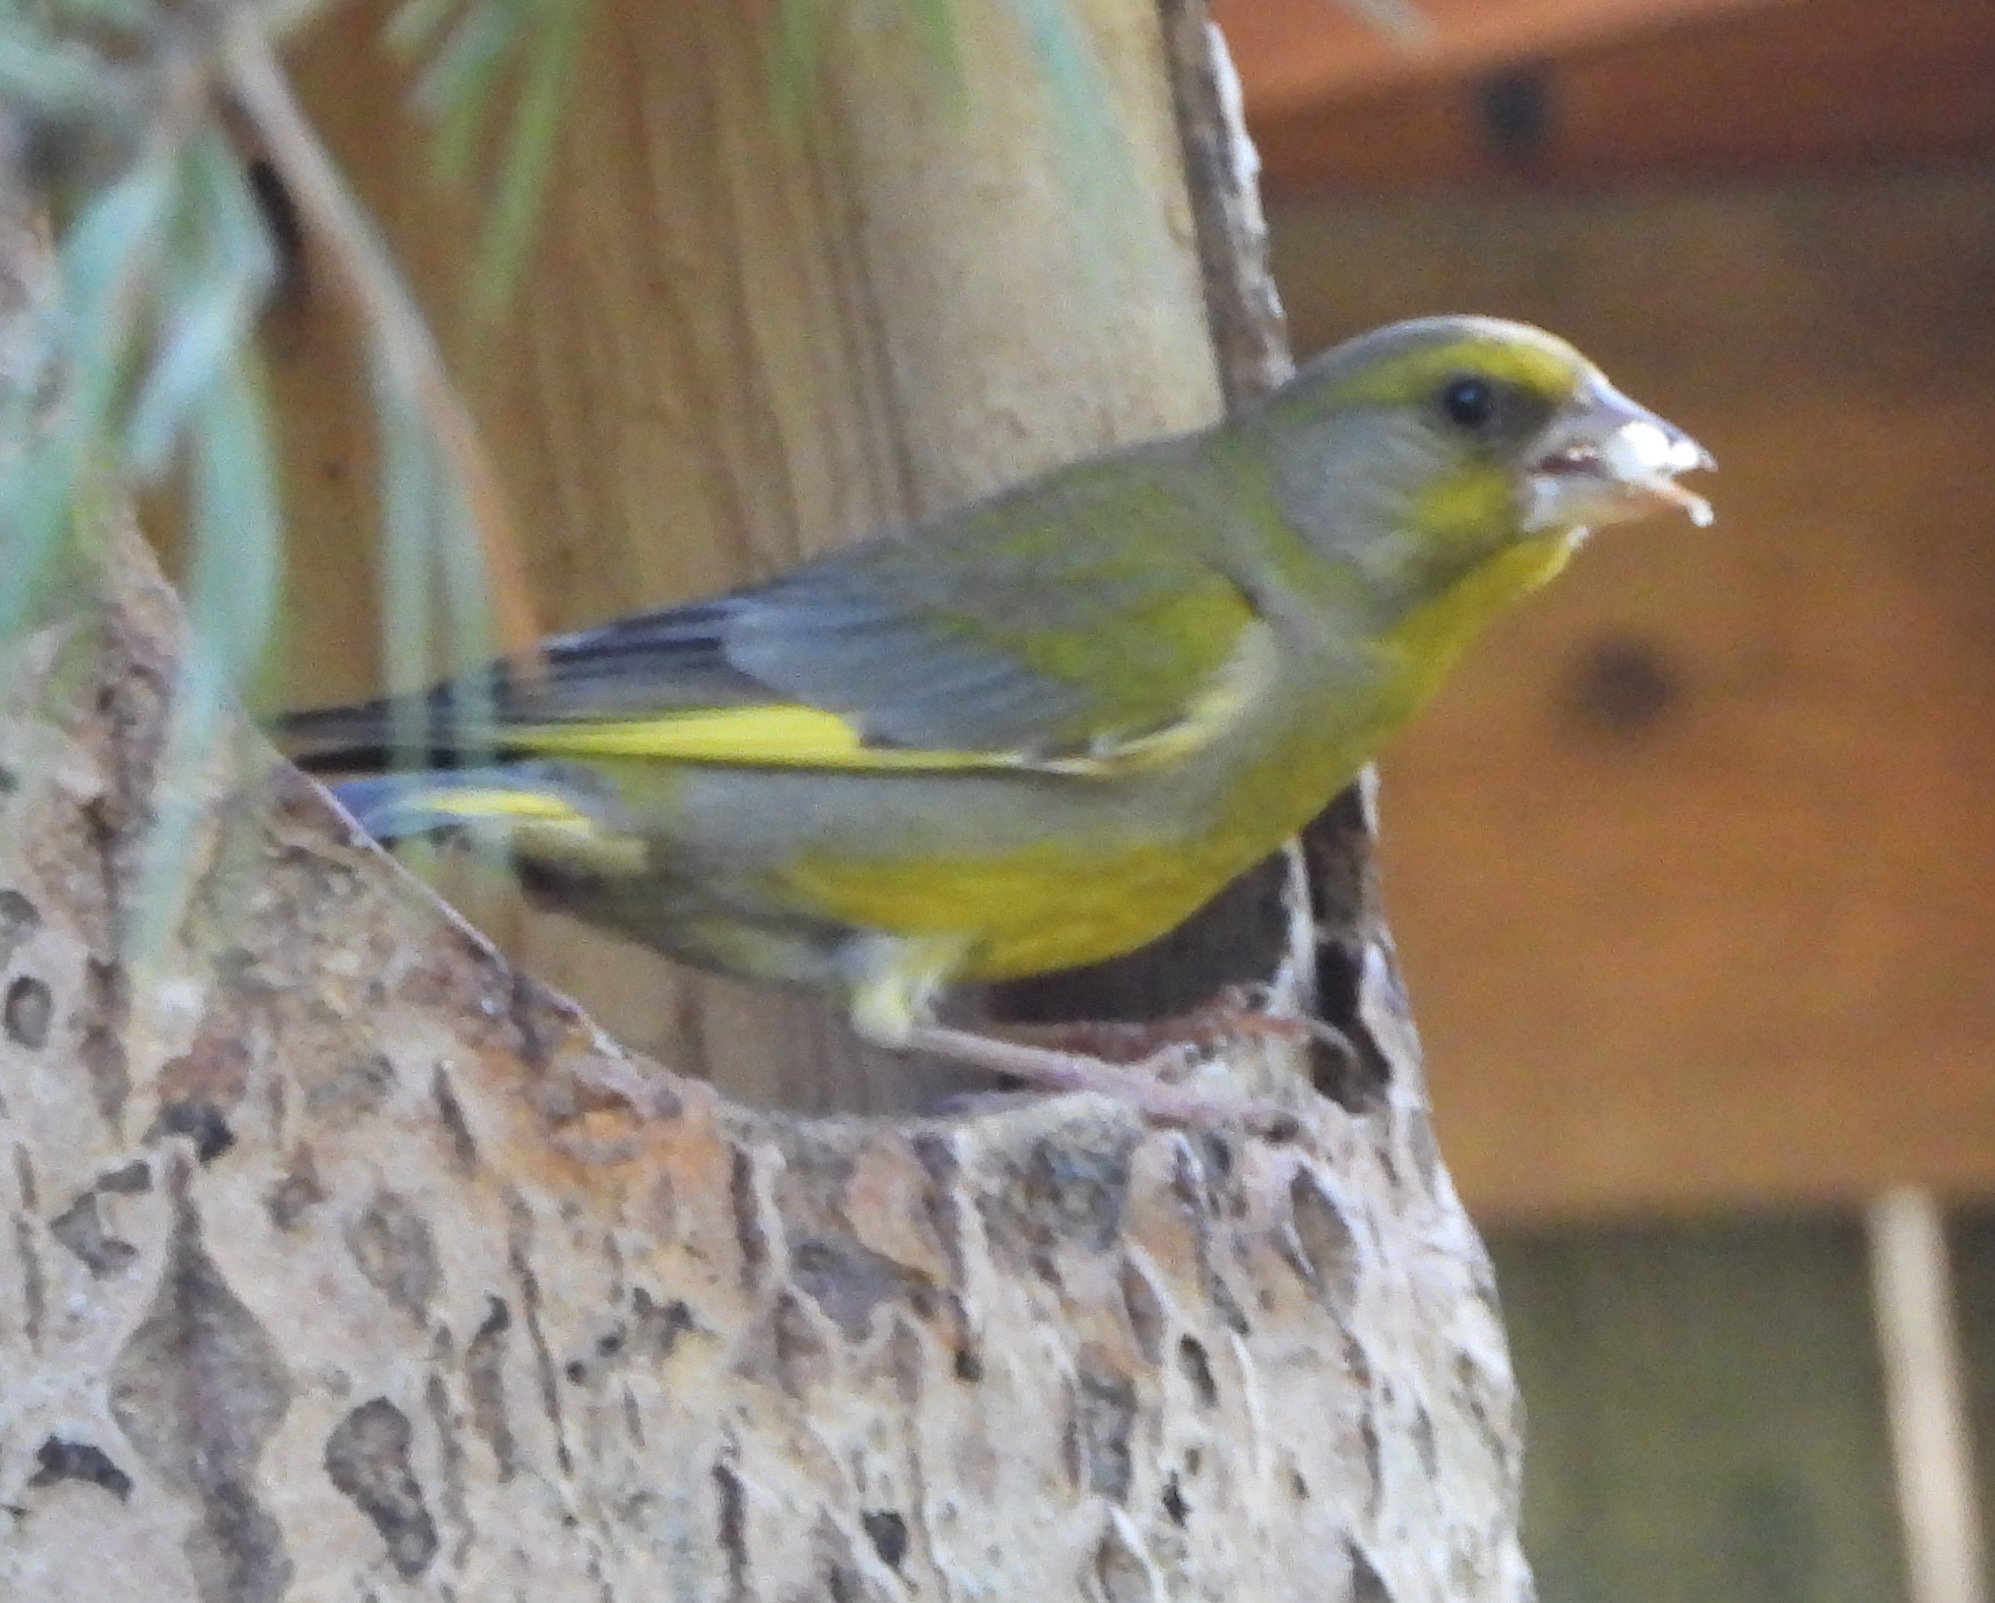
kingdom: Plantae
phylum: Tracheophyta
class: Liliopsida
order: Poales
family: Poaceae
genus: Chloris
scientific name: Chloris chloris
